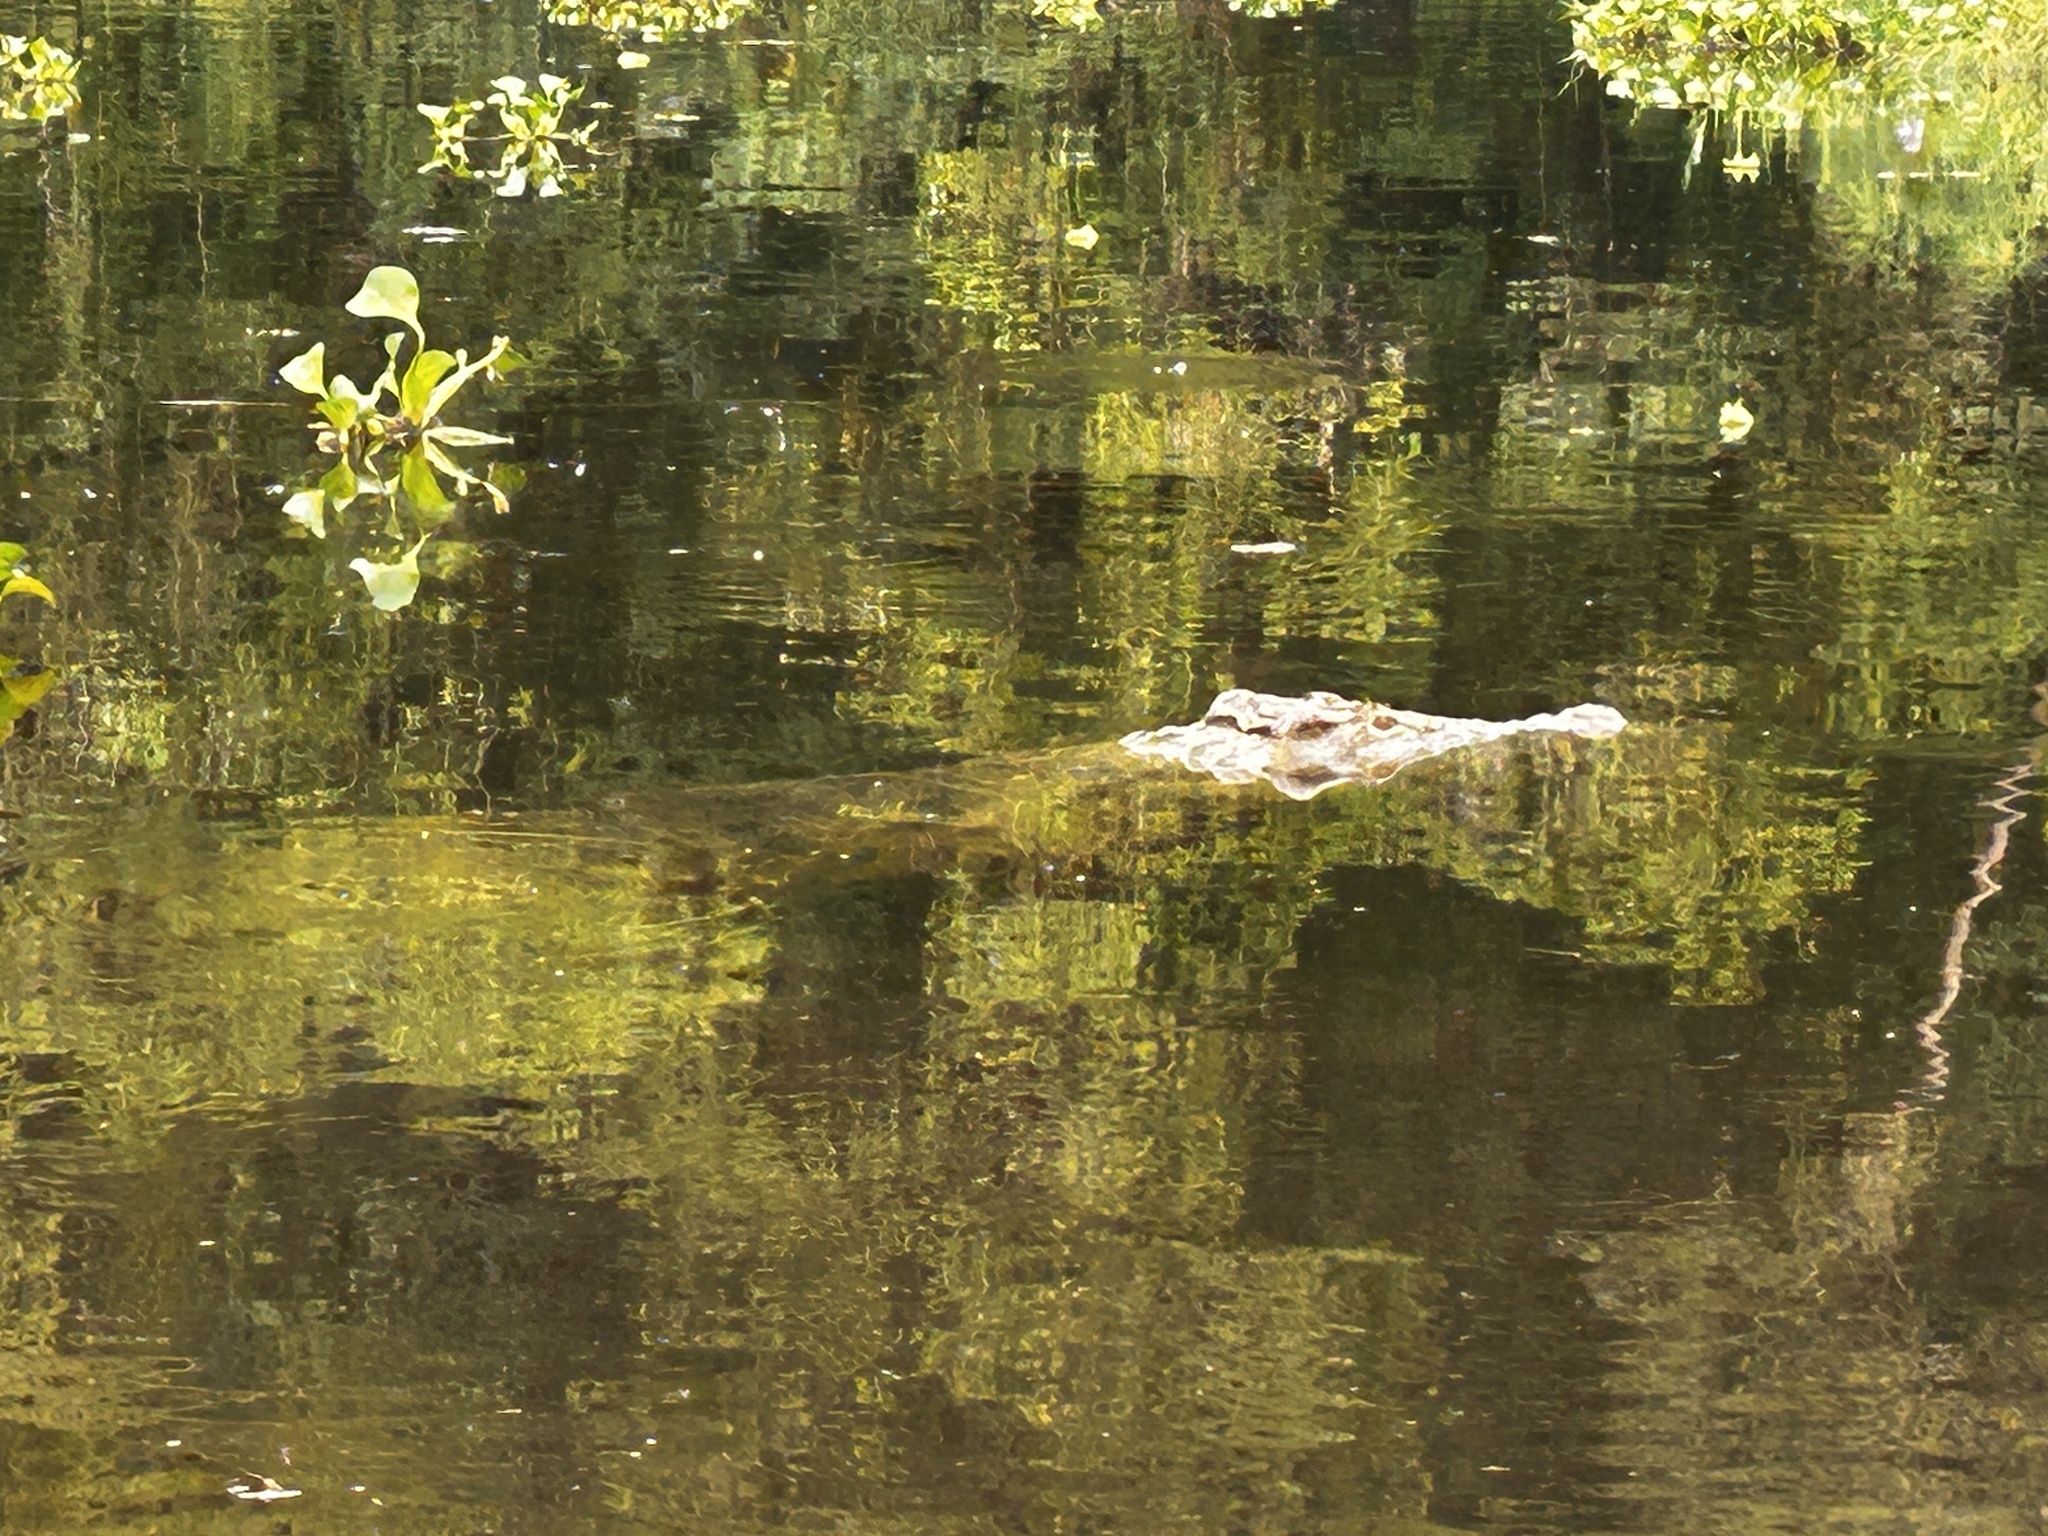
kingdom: Animalia
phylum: Chordata
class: Crocodylia
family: Crocodylidae
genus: Crocodylus
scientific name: Crocodylus niloticus
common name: Nile crocodile
